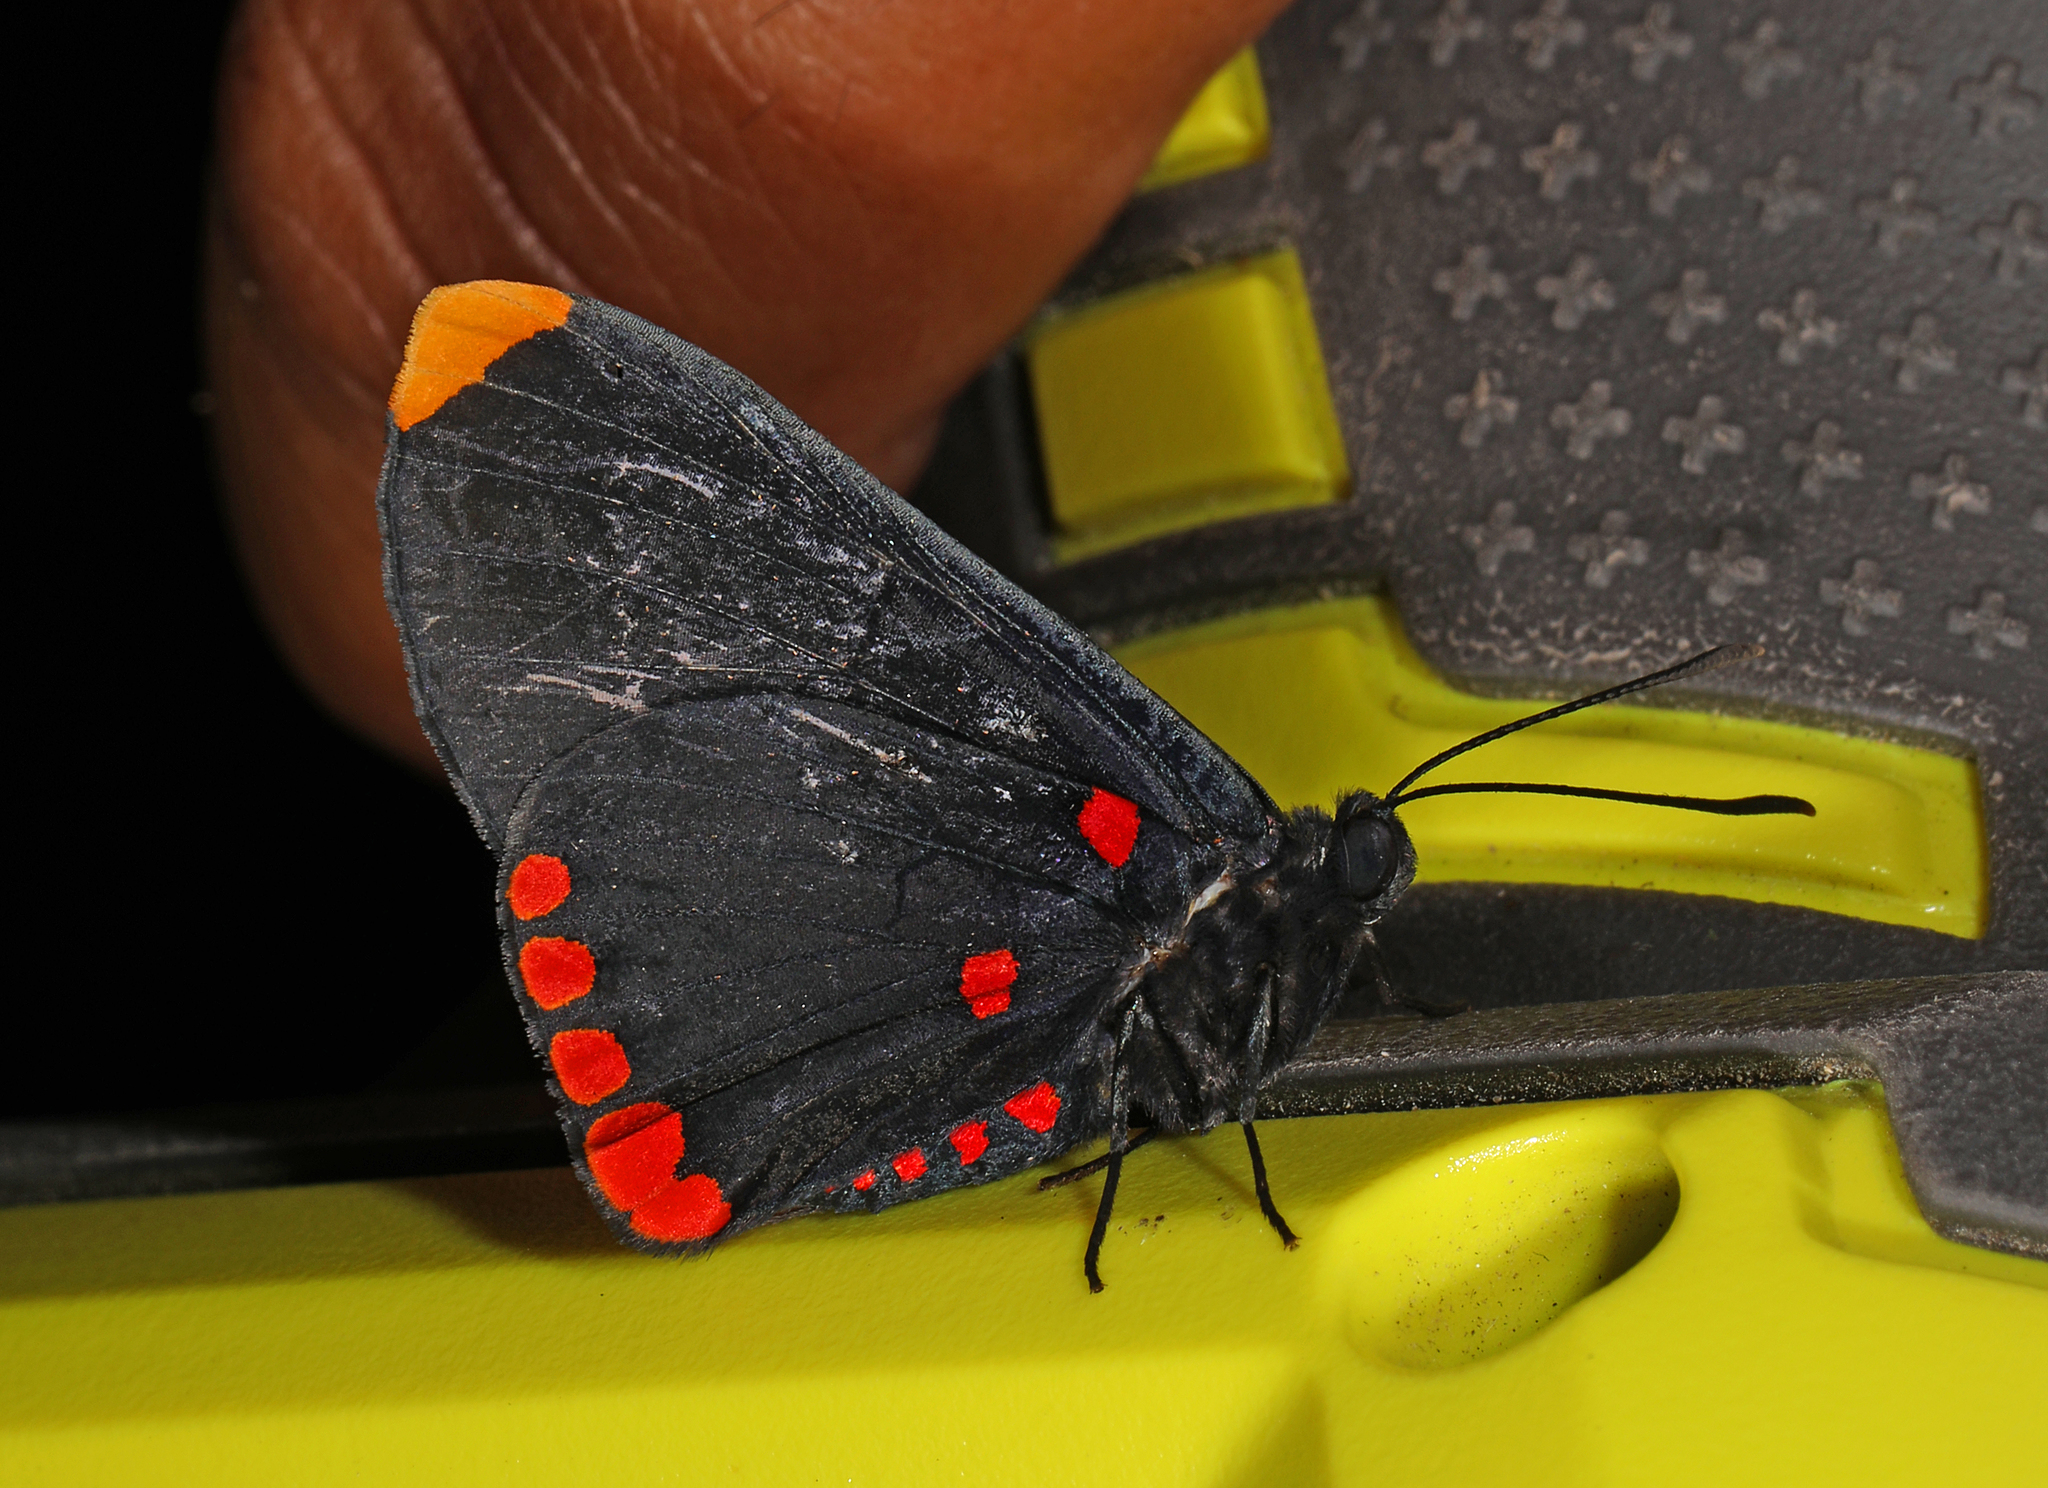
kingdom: Animalia
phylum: Arthropoda
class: Insecta
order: Lepidoptera
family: Lycaenidae
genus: Melanis
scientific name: Melanis pixe
